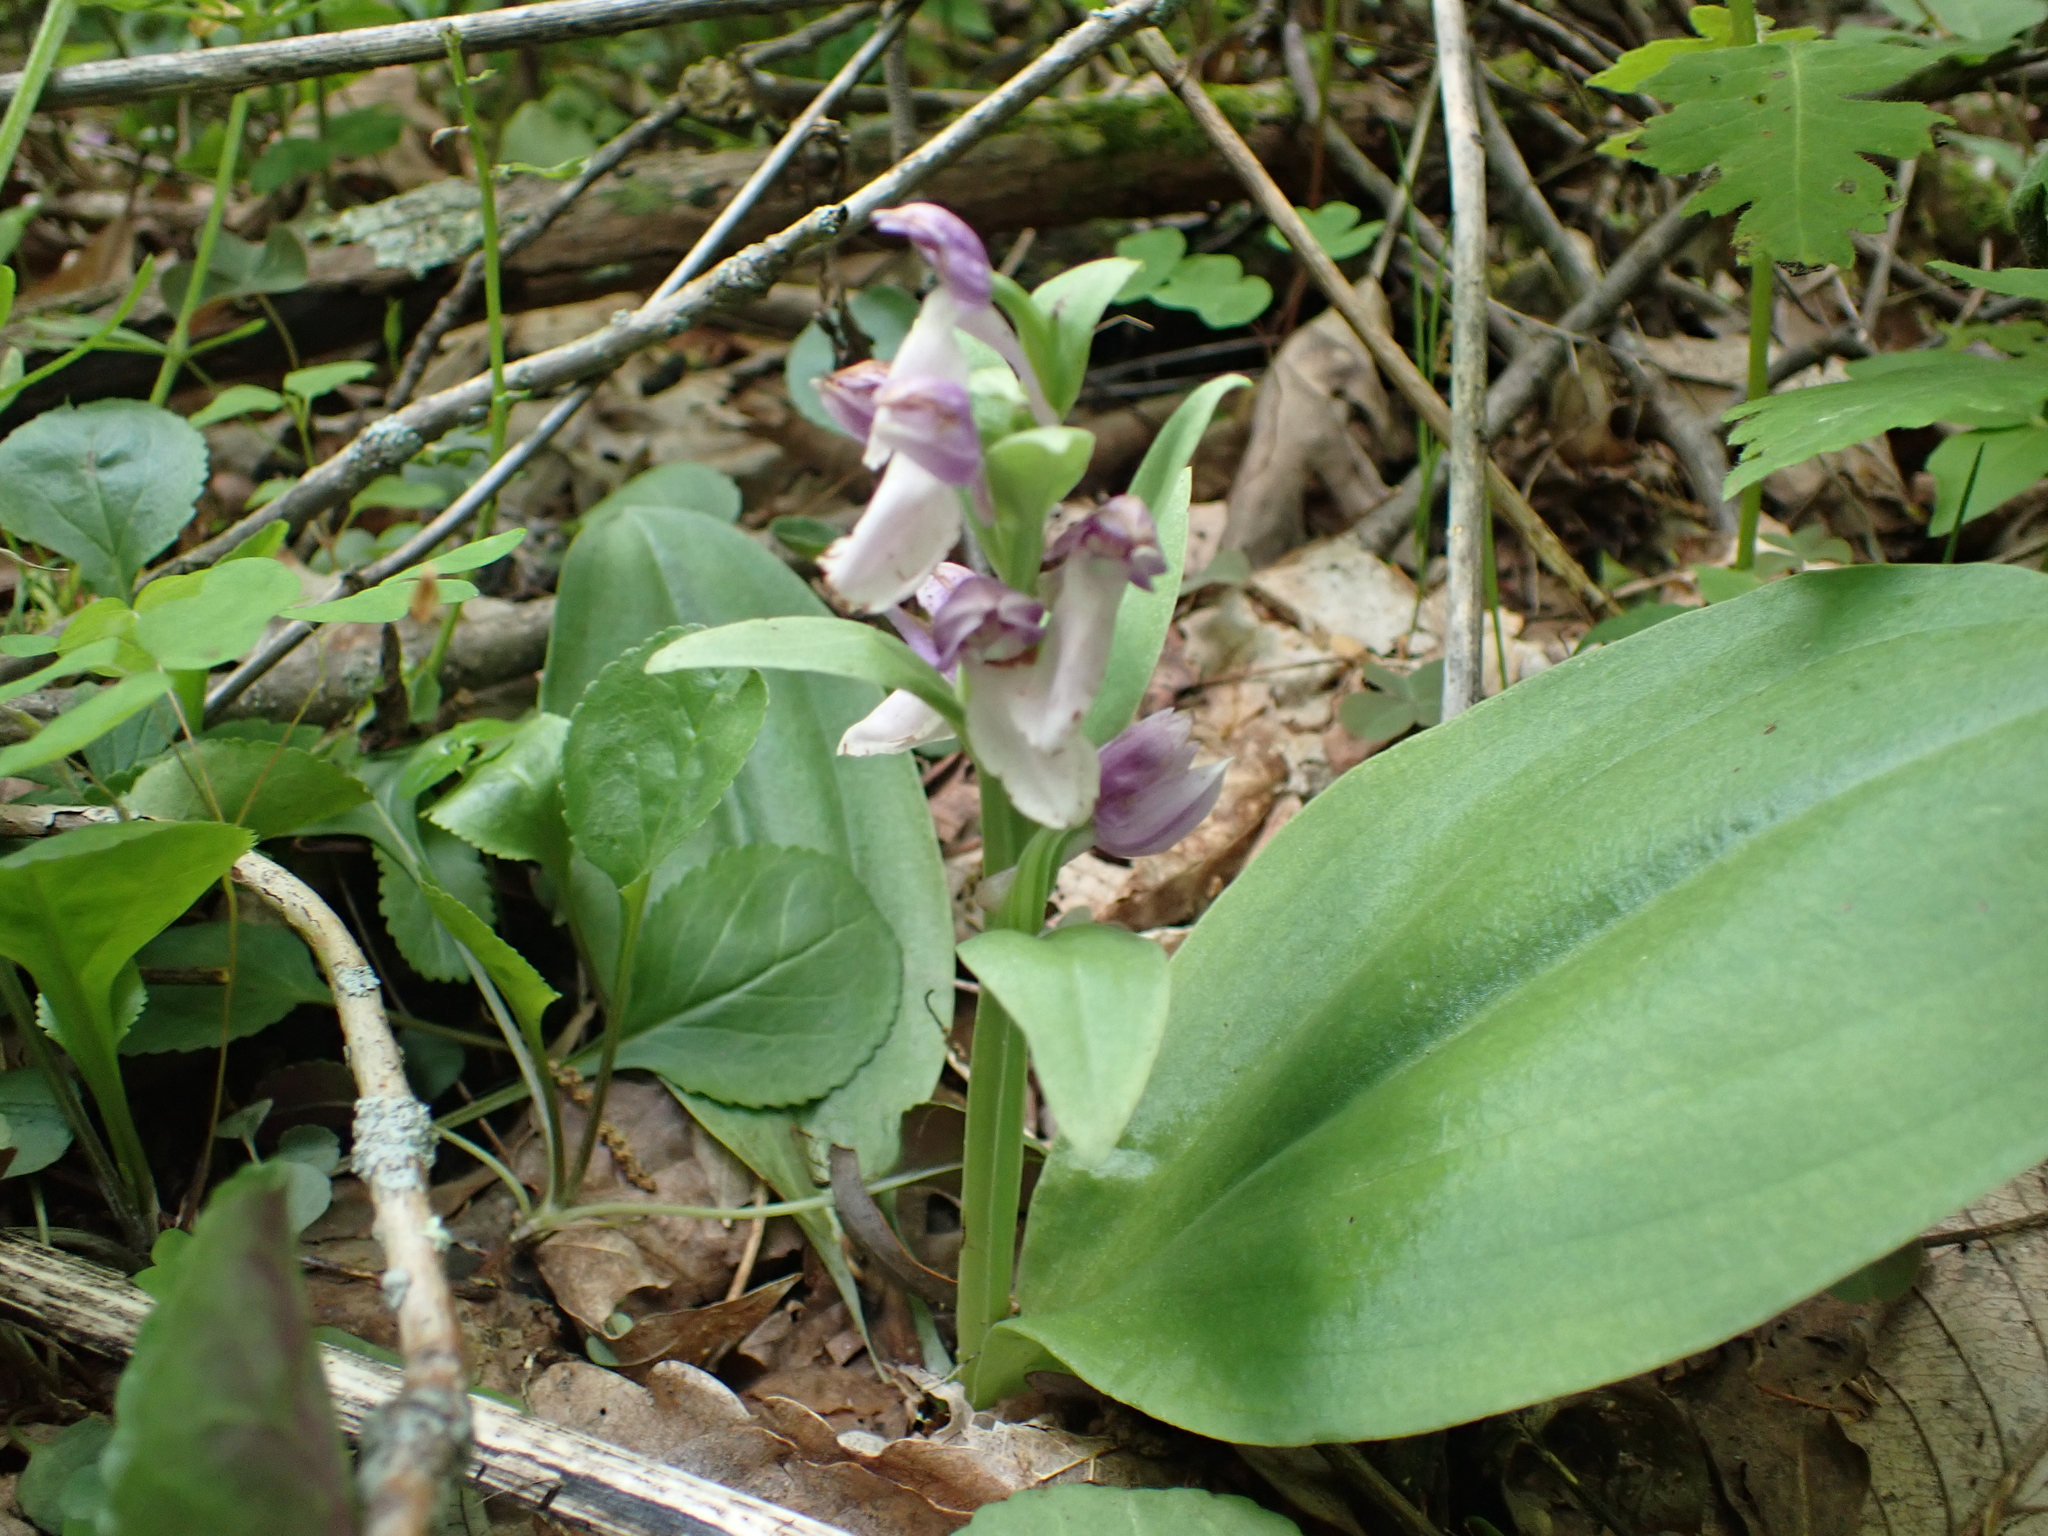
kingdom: Plantae
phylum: Tracheophyta
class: Liliopsida
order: Asparagales
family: Orchidaceae
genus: Galearis
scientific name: Galearis spectabilis
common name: Purple-hooded orchis
